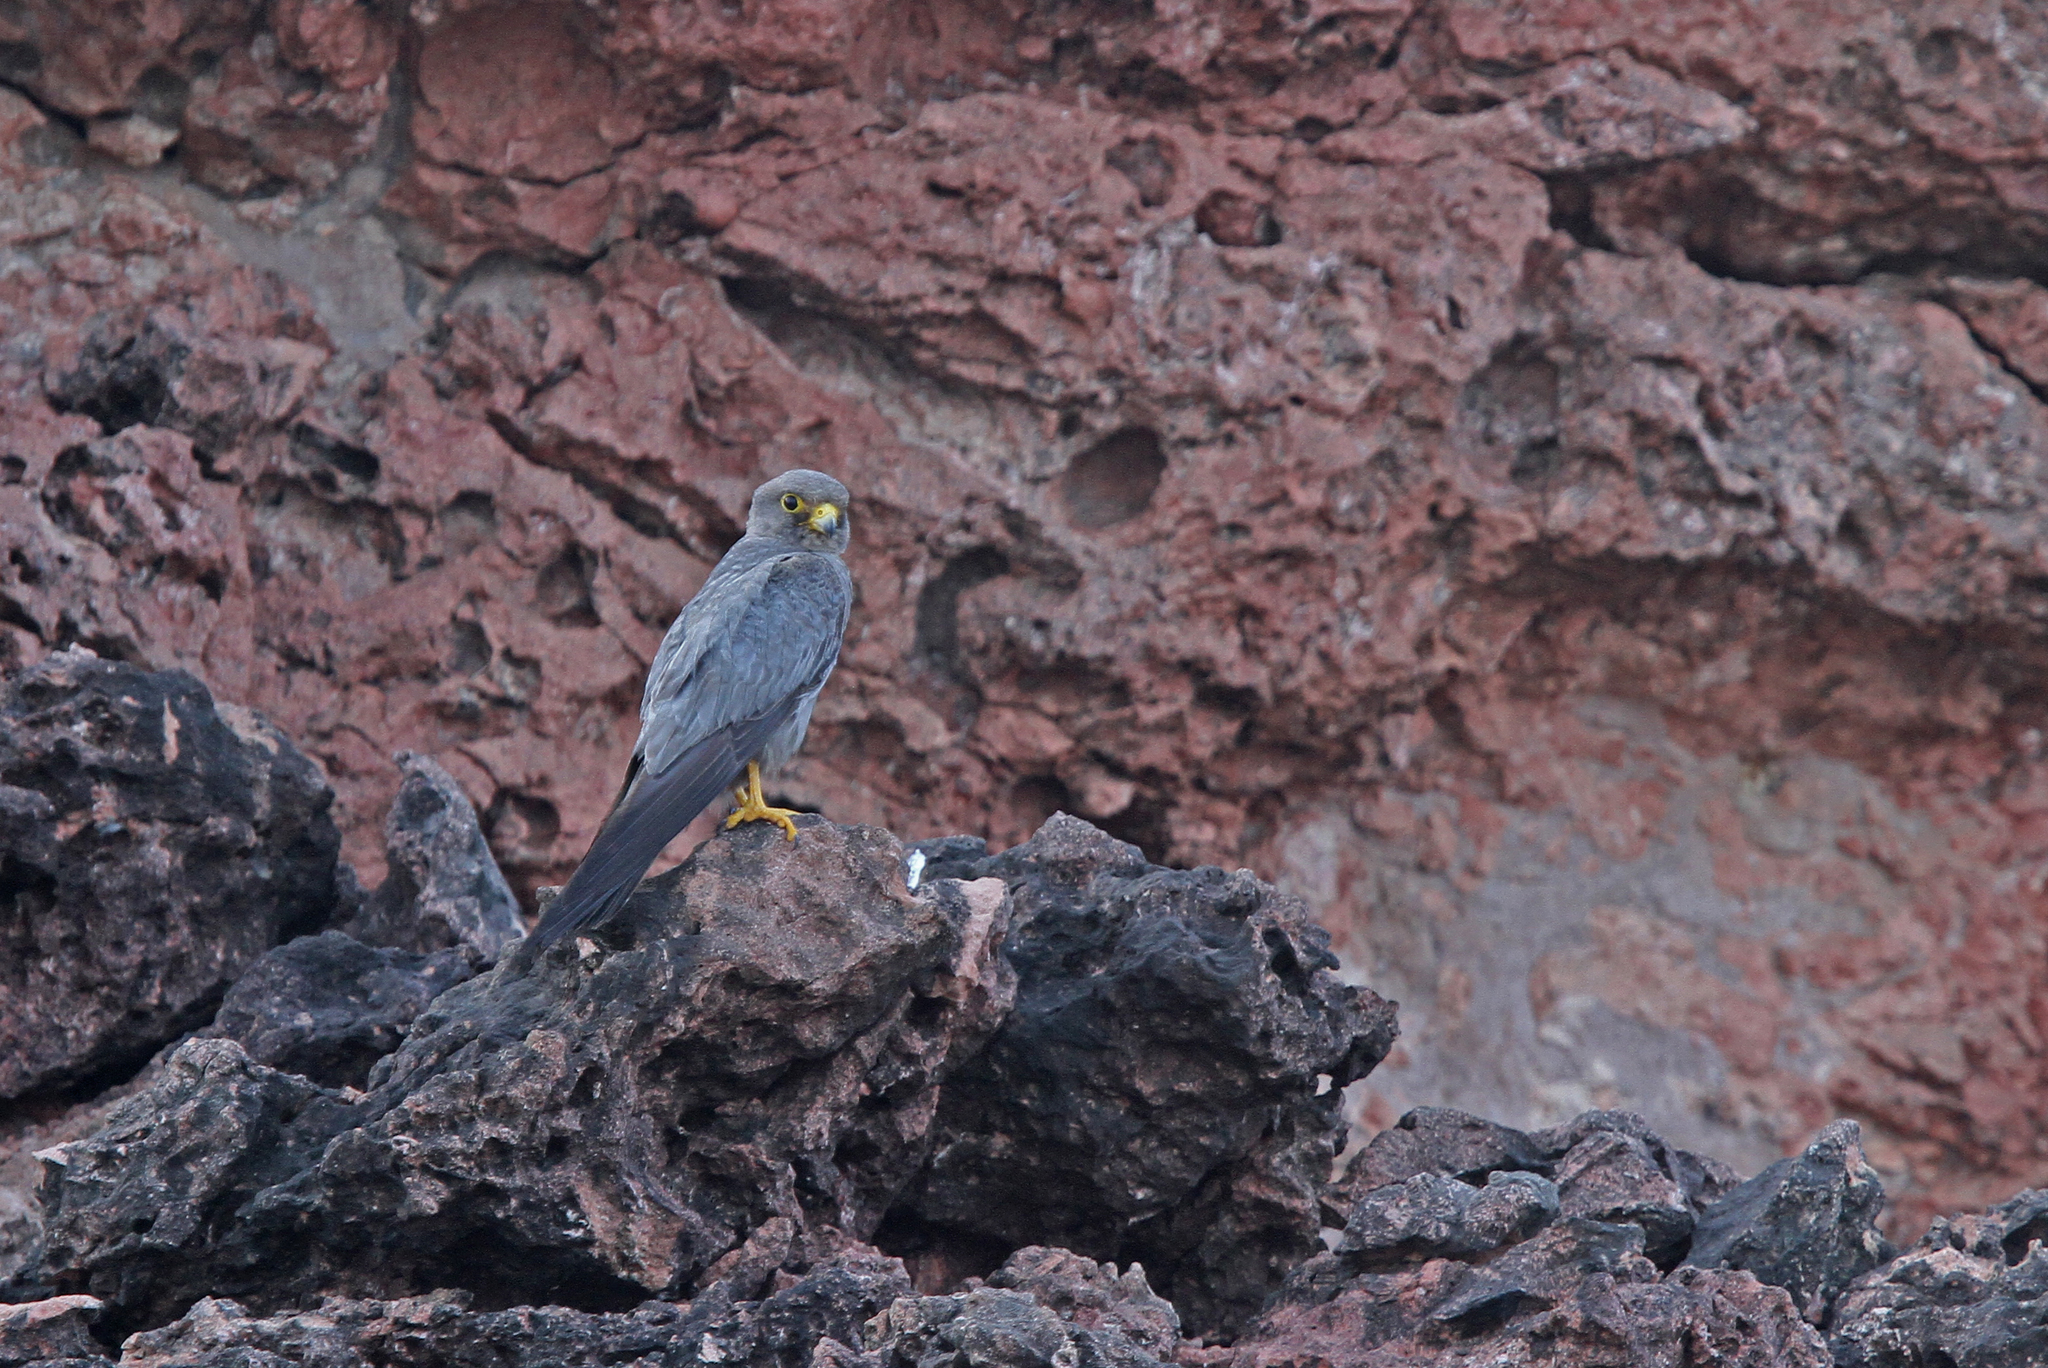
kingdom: Animalia
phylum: Chordata
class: Aves
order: Falconiformes
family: Falconidae
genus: Falco
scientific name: Falco concolor
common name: Sooty falcon
